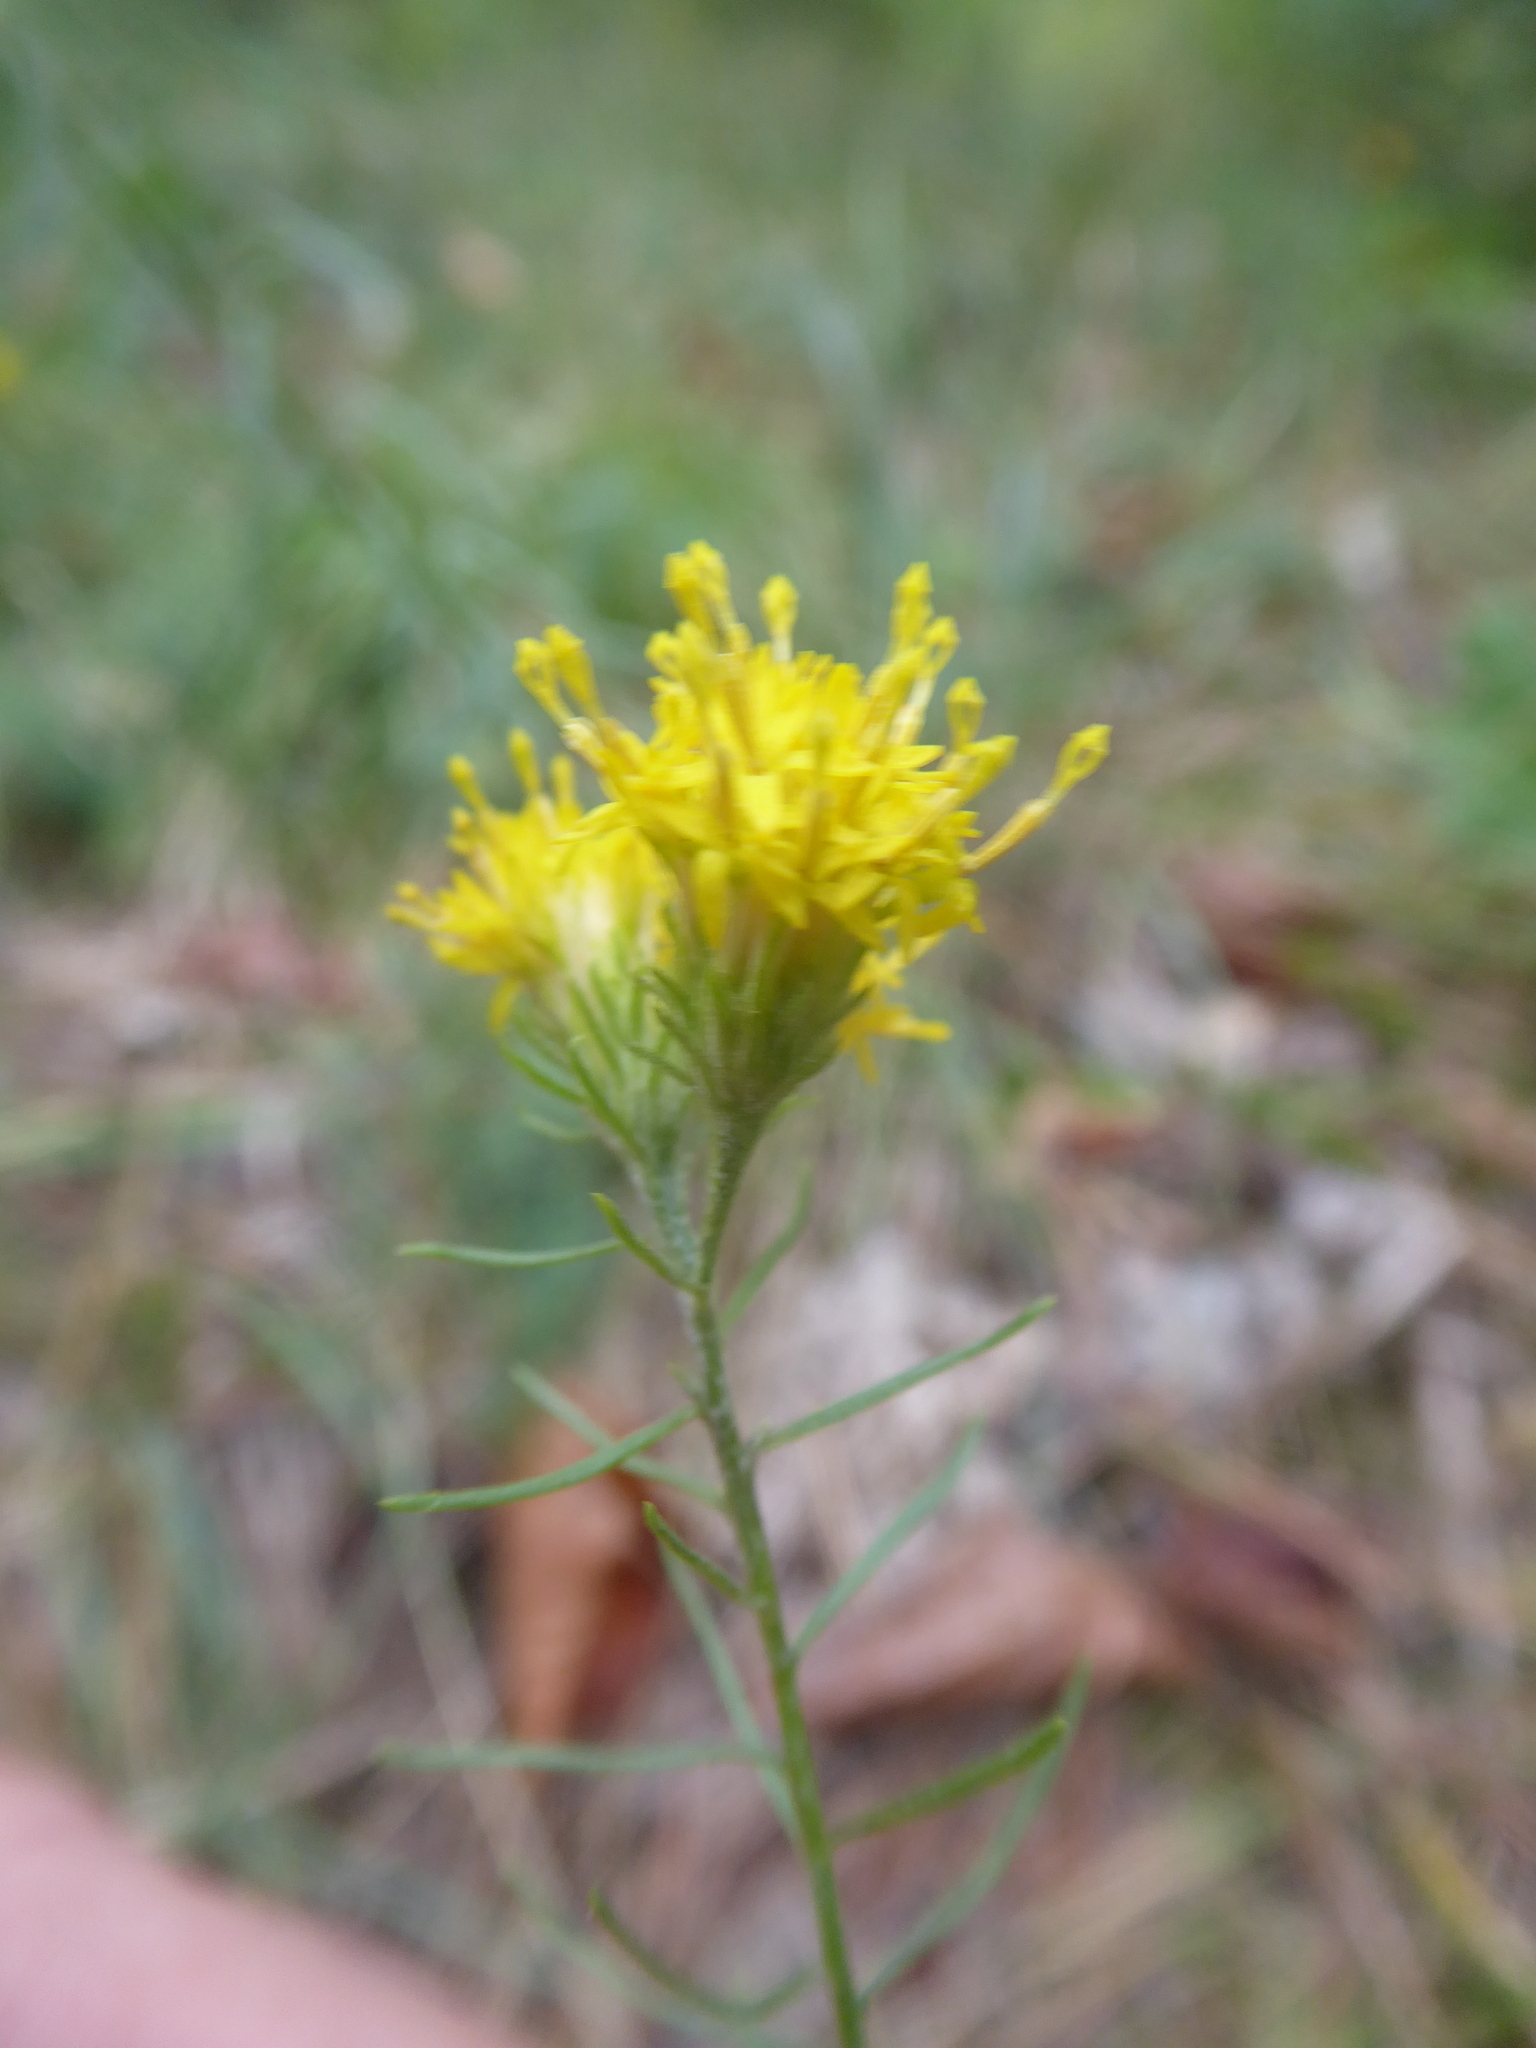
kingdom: Plantae
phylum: Tracheophyta
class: Magnoliopsida
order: Asterales
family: Asteraceae
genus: Galatella
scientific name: Galatella linosyris
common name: Goldilocks aster
